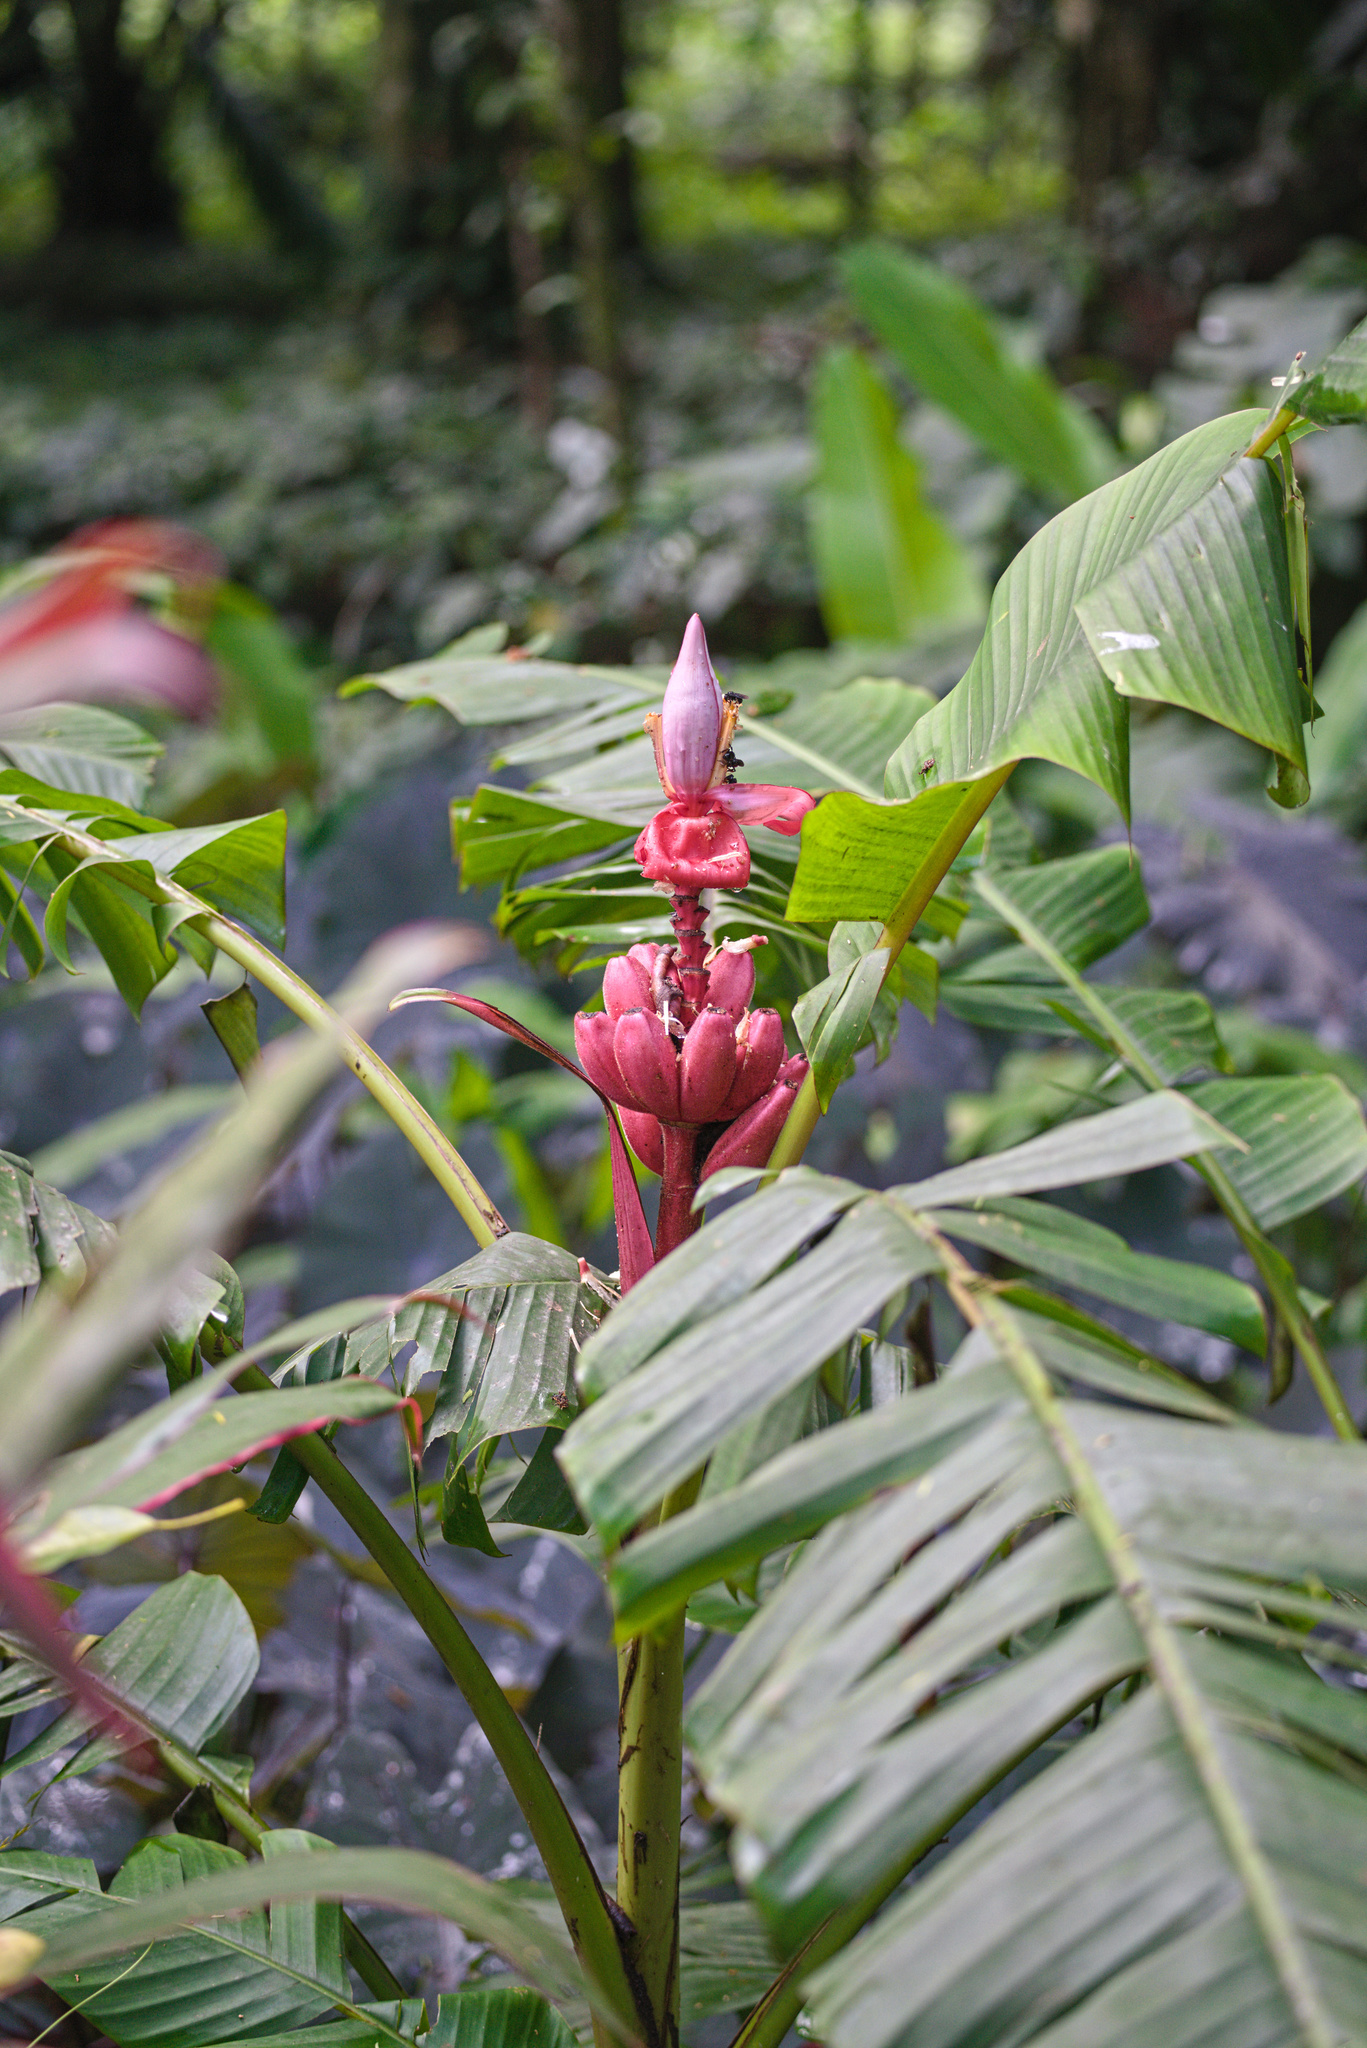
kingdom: Plantae
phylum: Tracheophyta
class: Liliopsida
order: Zingiberales
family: Musaceae
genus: Musa
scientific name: Musa velutina
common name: Pink velvet banana
